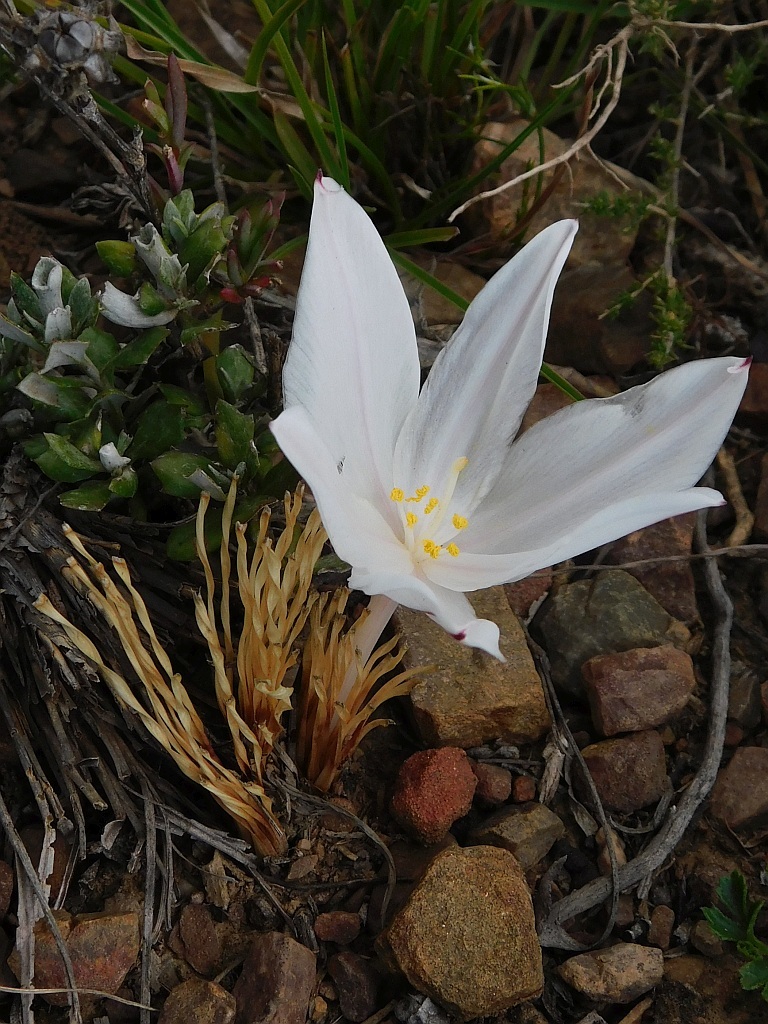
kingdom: Plantae
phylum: Tracheophyta
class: Liliopsida
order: Asparagales
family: Amaryllidaceae
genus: Gethyllis
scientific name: Gethyllis afra
